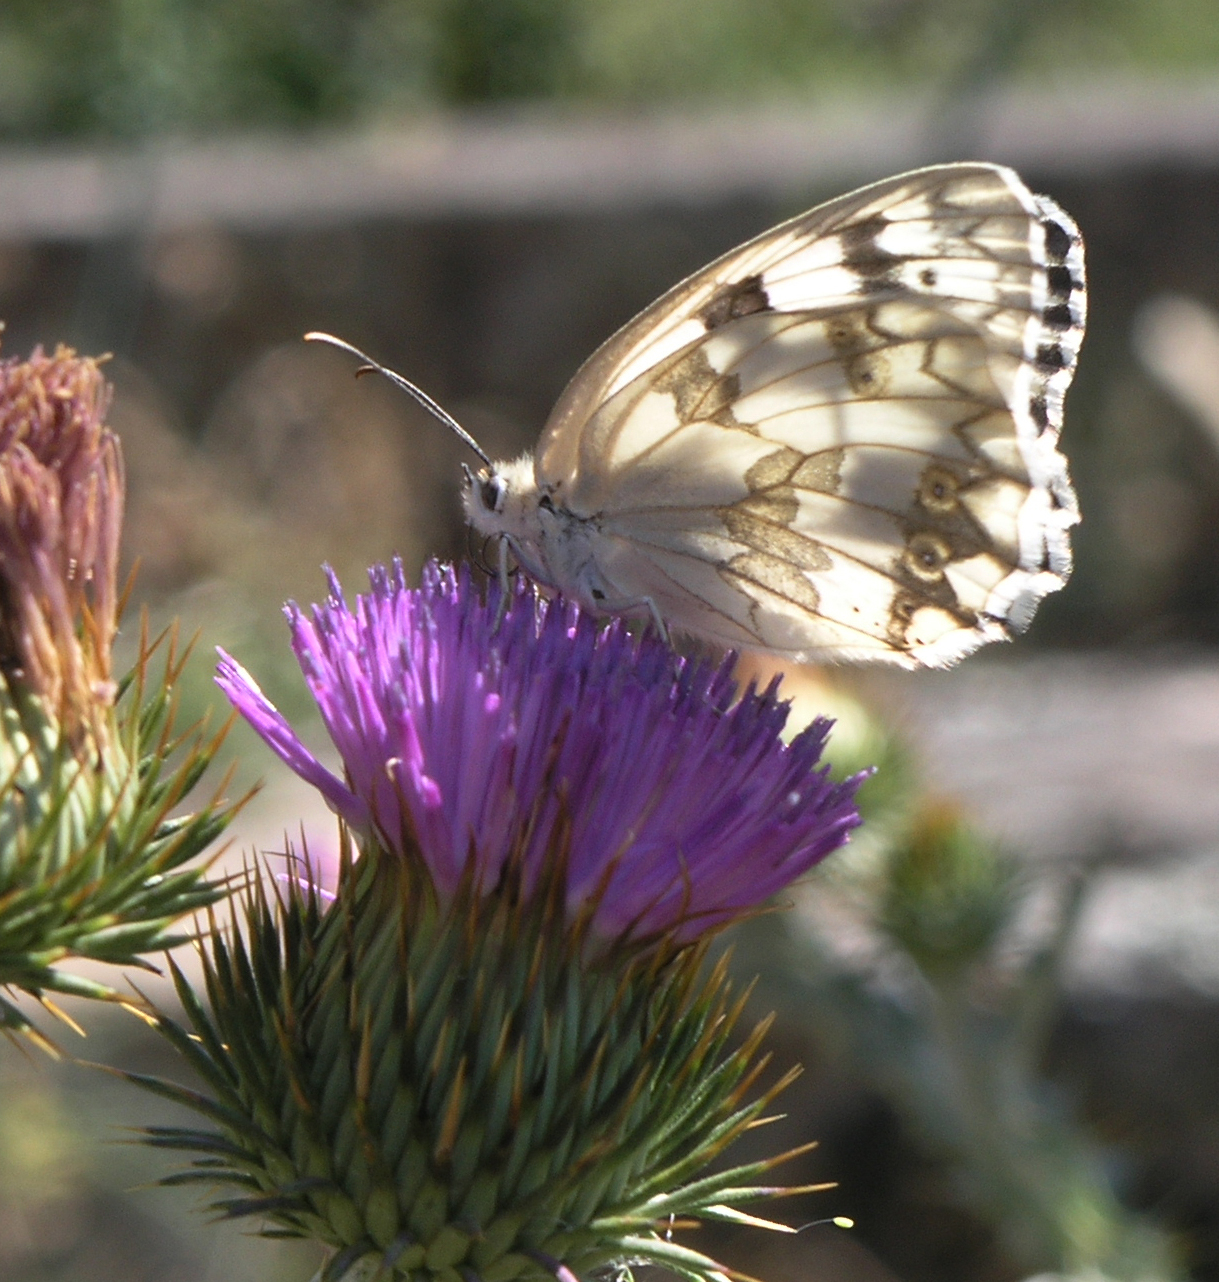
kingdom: Animalia
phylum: Arthropoda
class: Insecta
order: Lepidoptera
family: Nymphalidae
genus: Melanargia
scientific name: Melanargia lachesis
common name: Iberian marbled white
